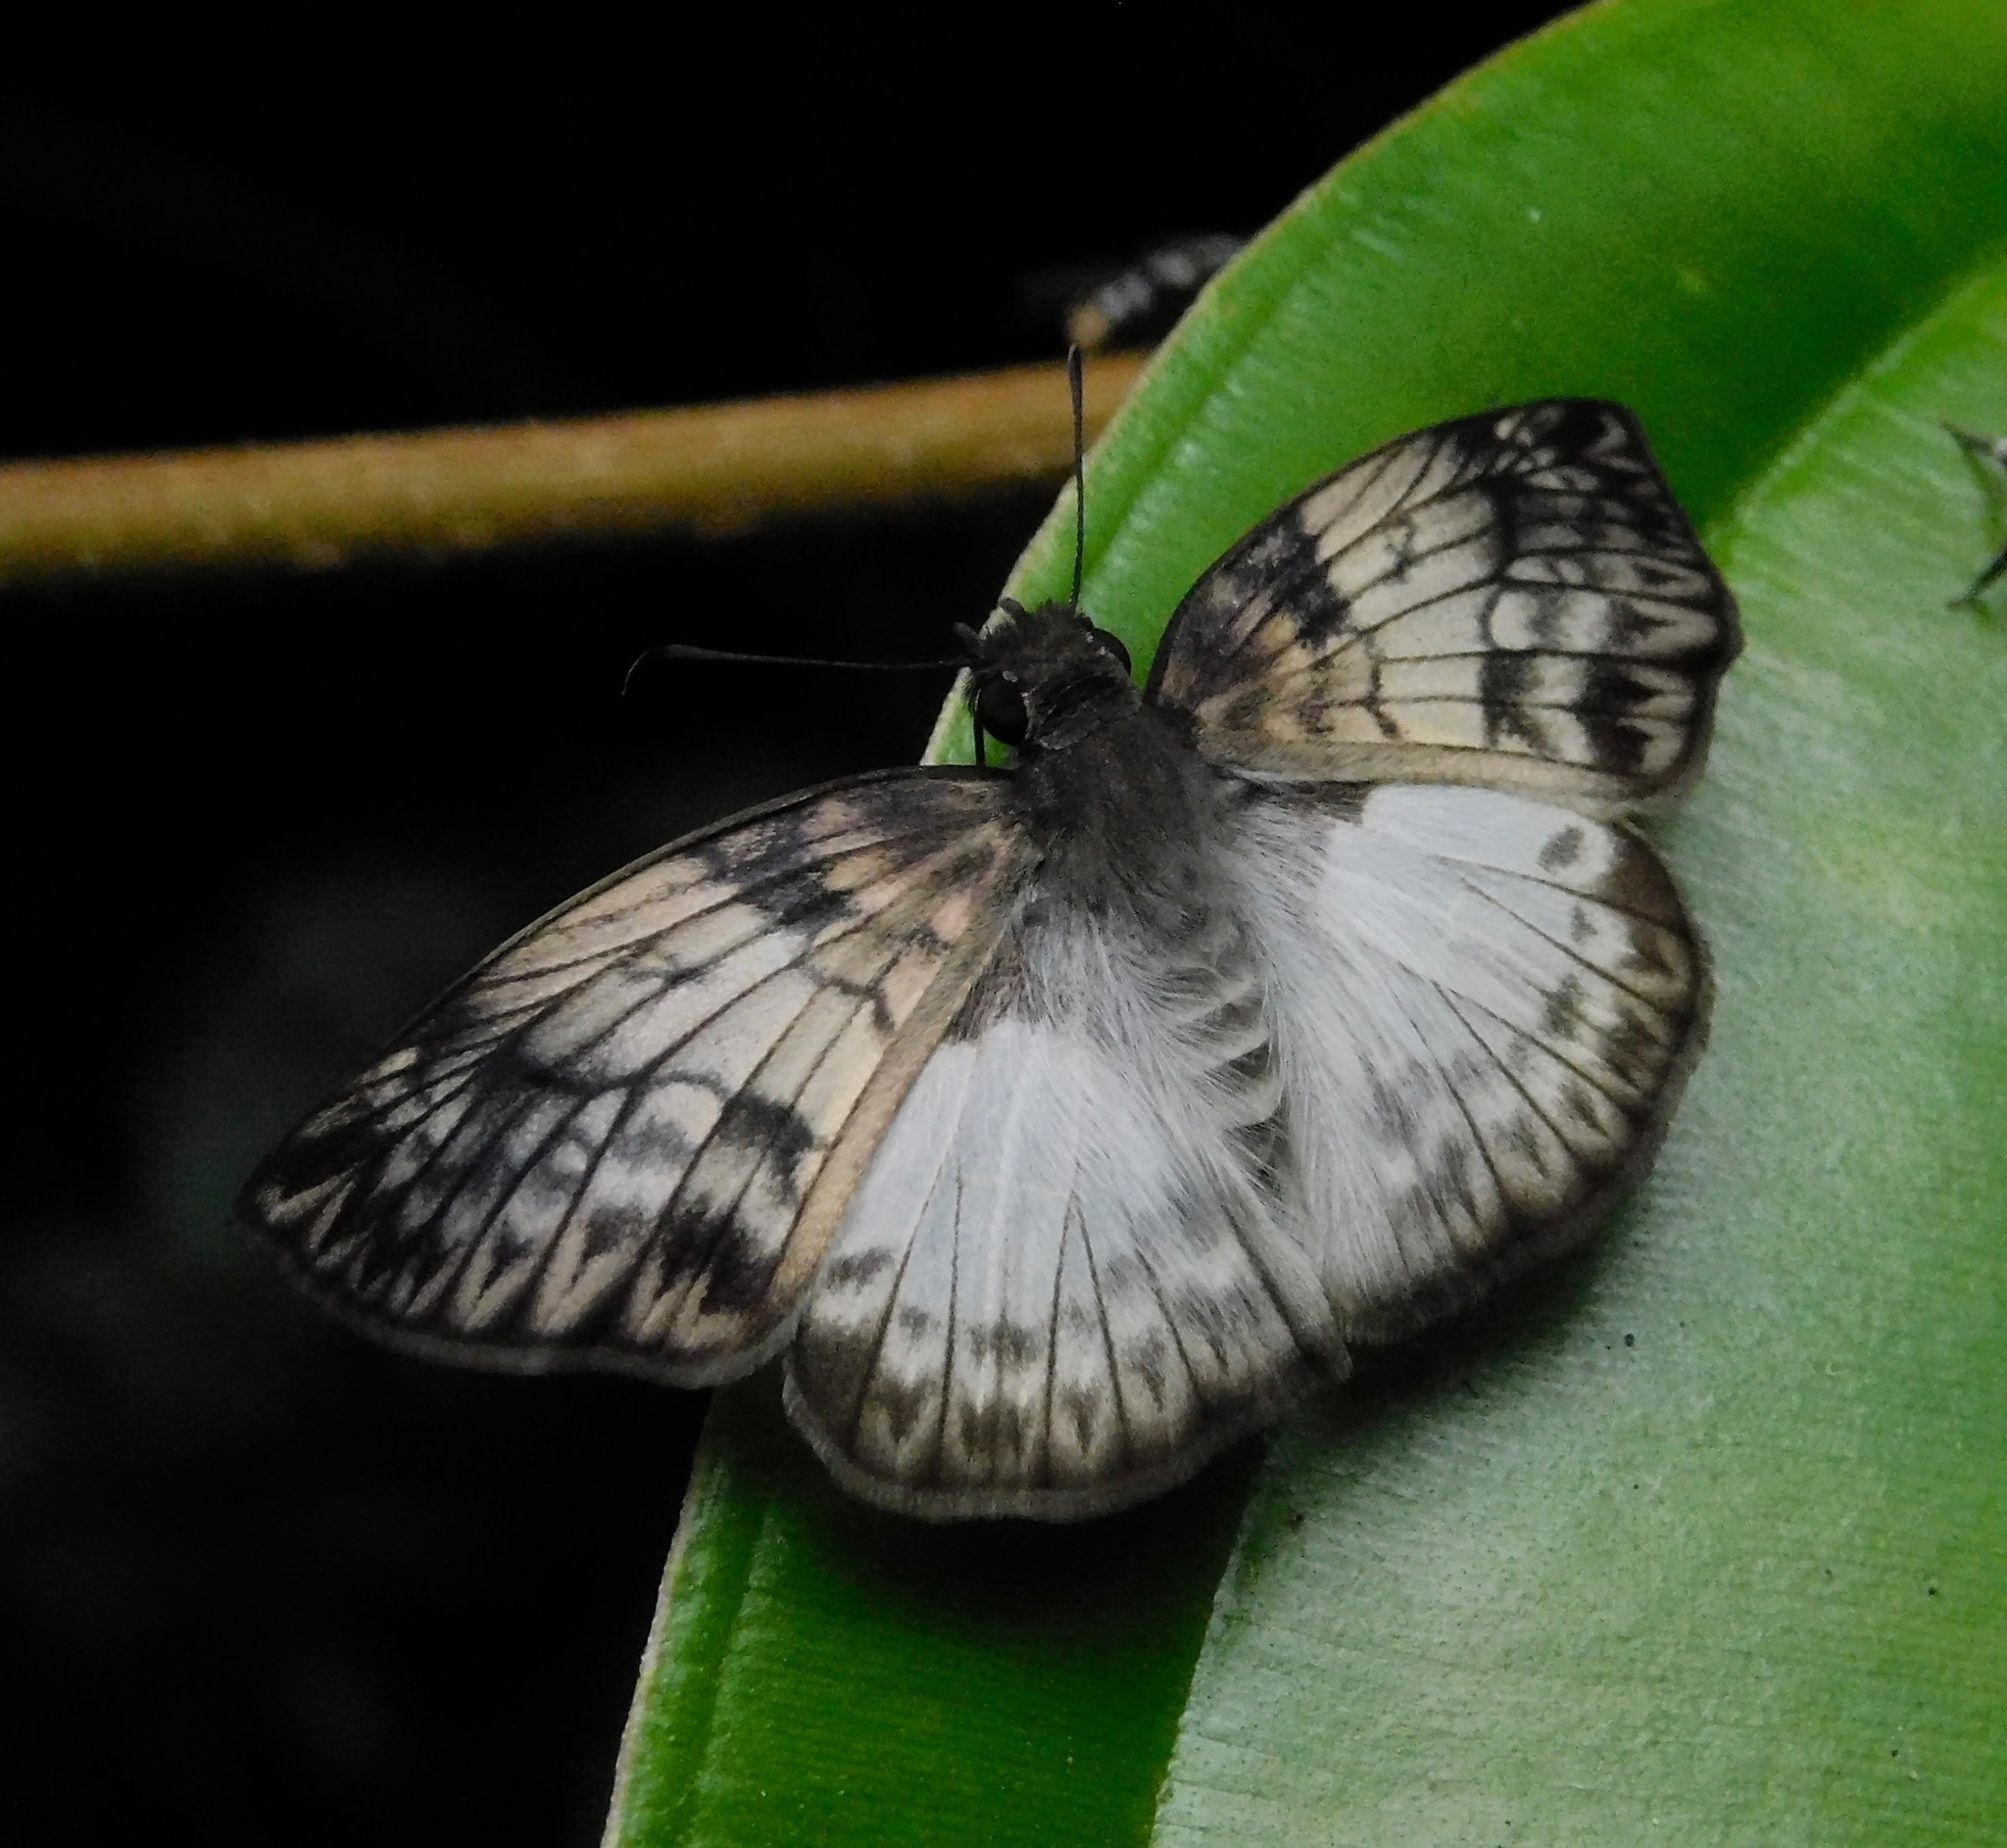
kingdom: Animalia
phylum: Arthropoda
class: Insecta
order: Lepidoptera
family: Hesperiidae
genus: Mylon
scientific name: Mylon maimon
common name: Common mylon
